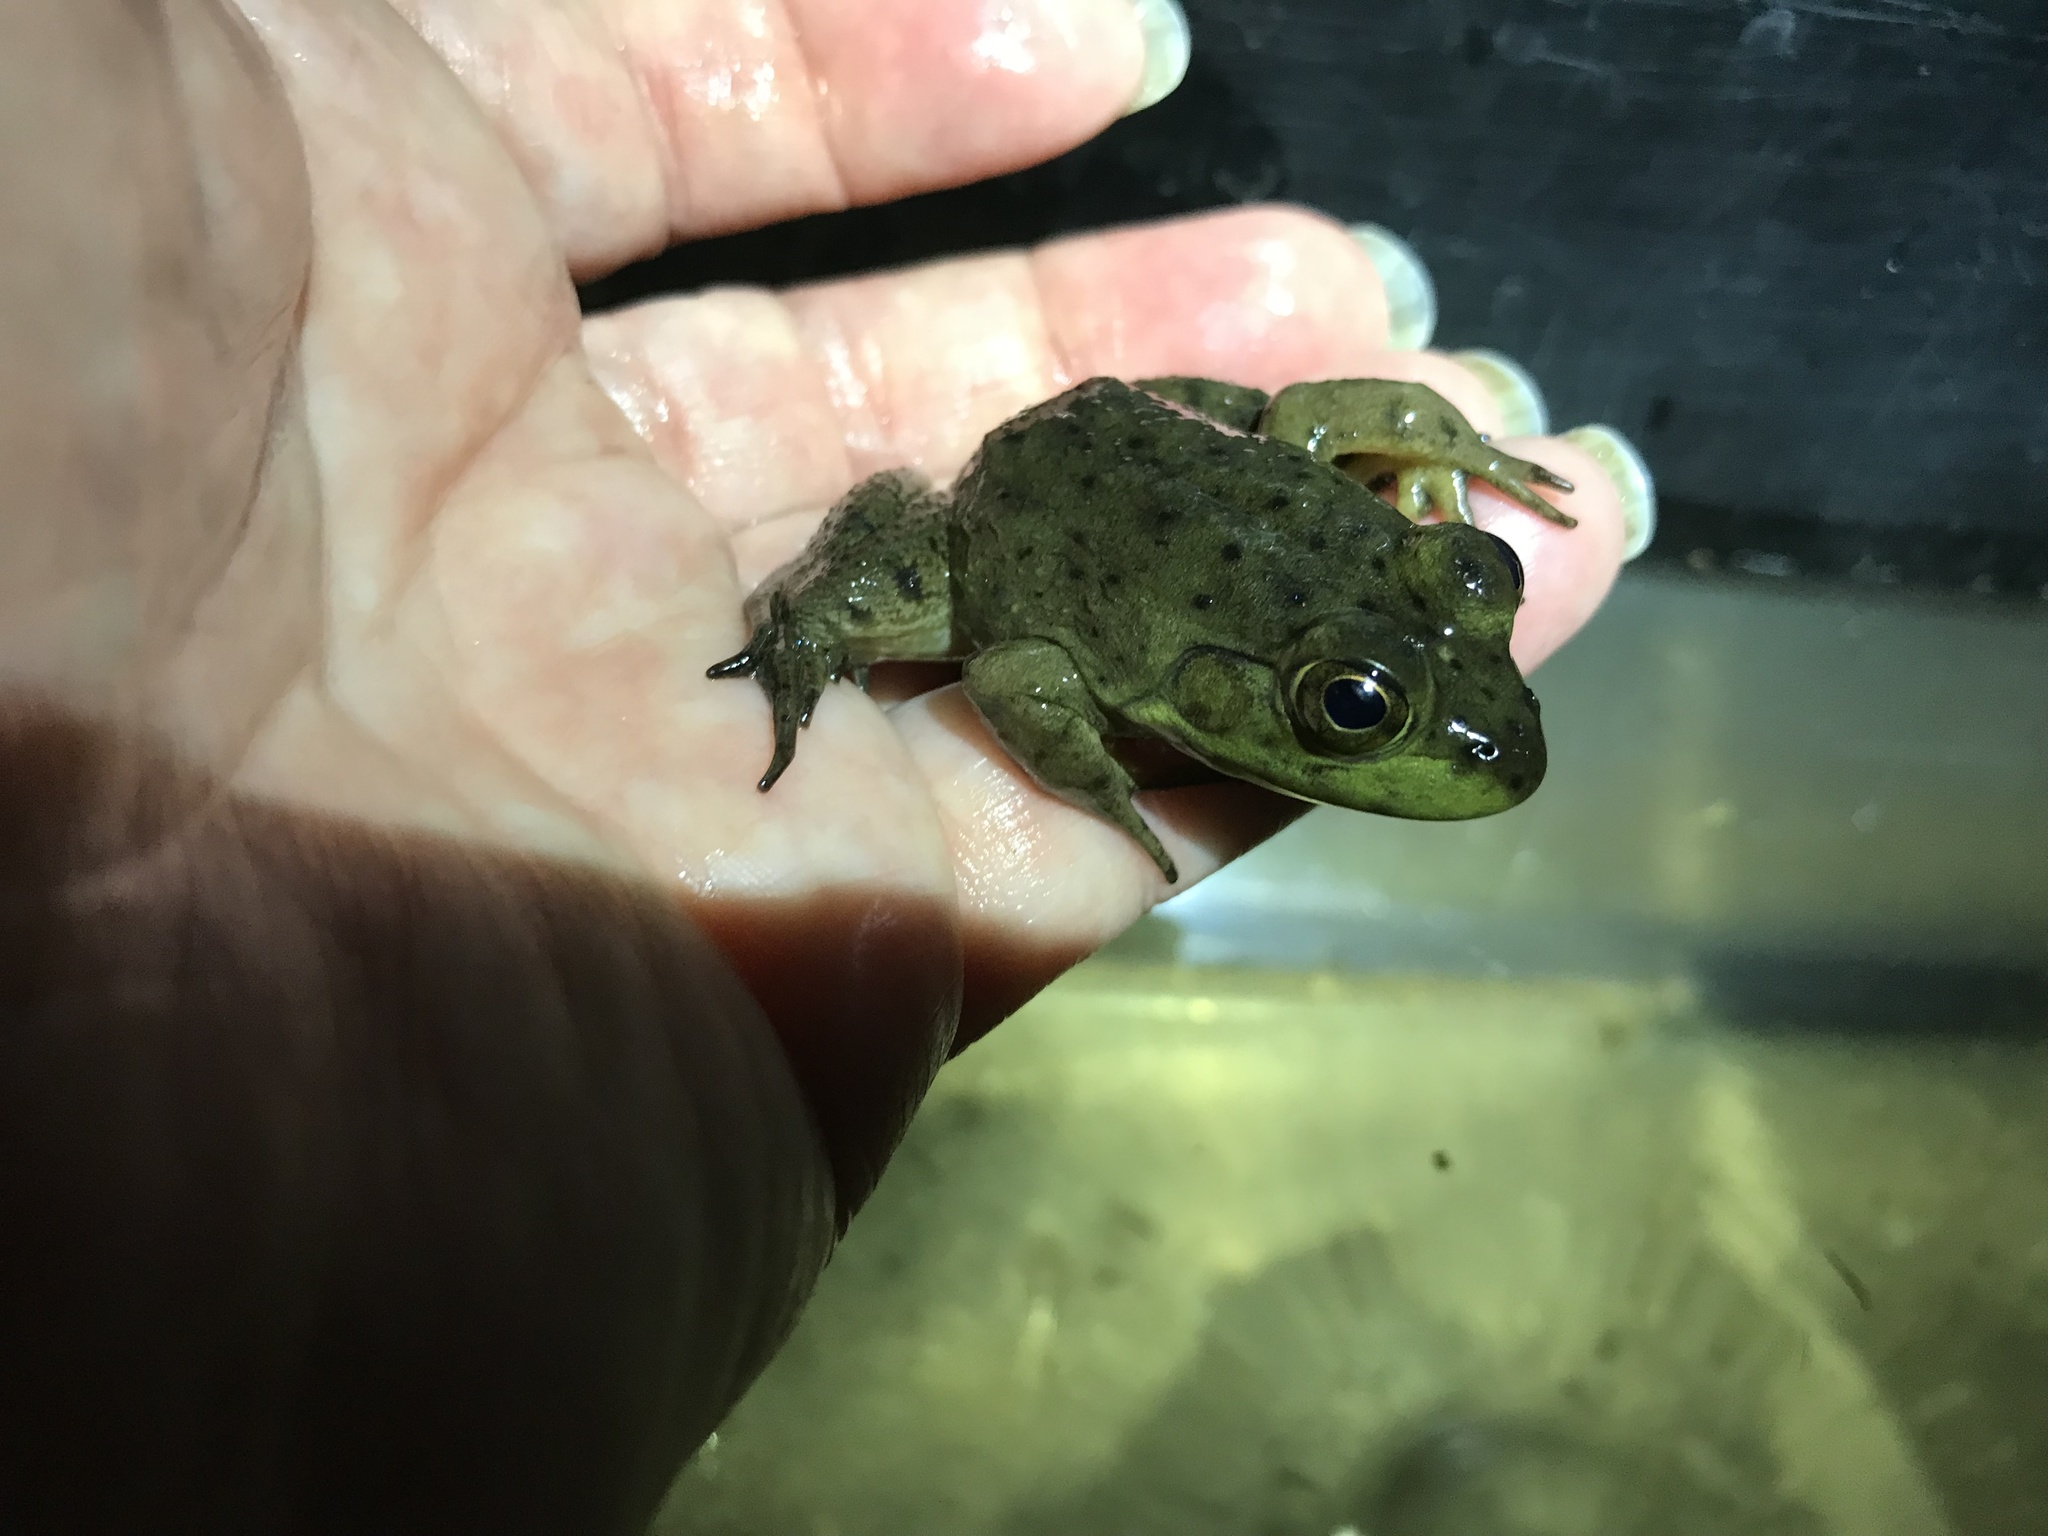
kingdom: Animalia
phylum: Chordata
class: Amphibia
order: Anura
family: Ranidae
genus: Lithobates
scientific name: Lithobates catesbeianus
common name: American bullfrog
